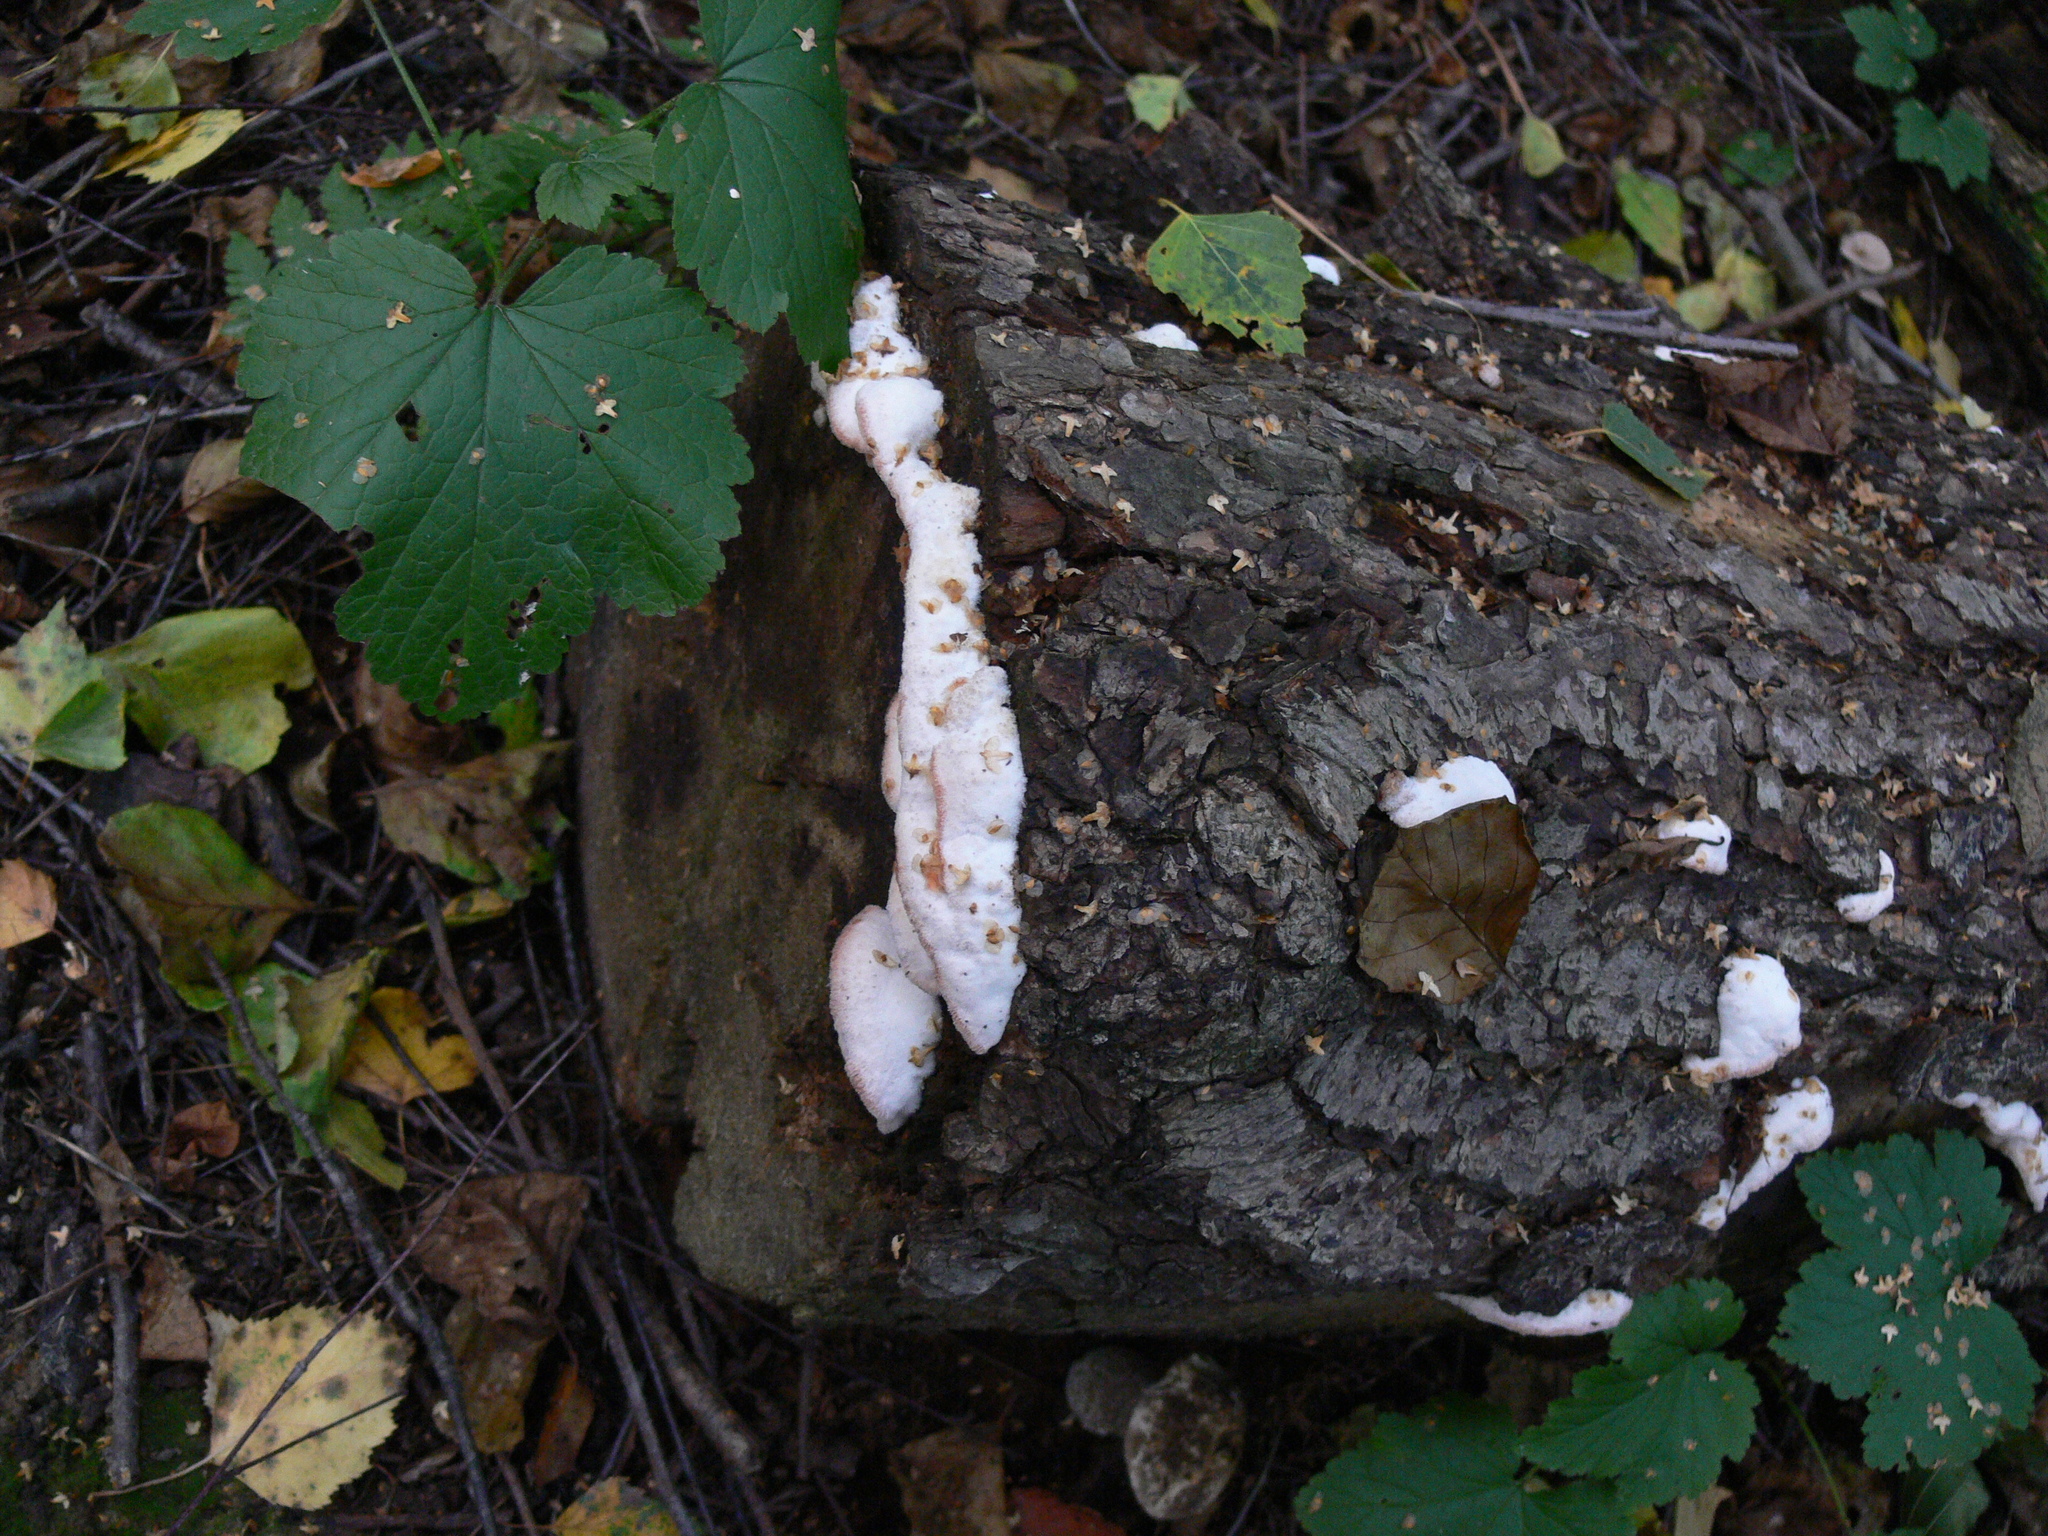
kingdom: Fungi
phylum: Basidiomycota
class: Agaricomycetes
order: Polyporales
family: Meruliaceae
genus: Phlebia
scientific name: Phlebia tremellosa
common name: Jelly rot
